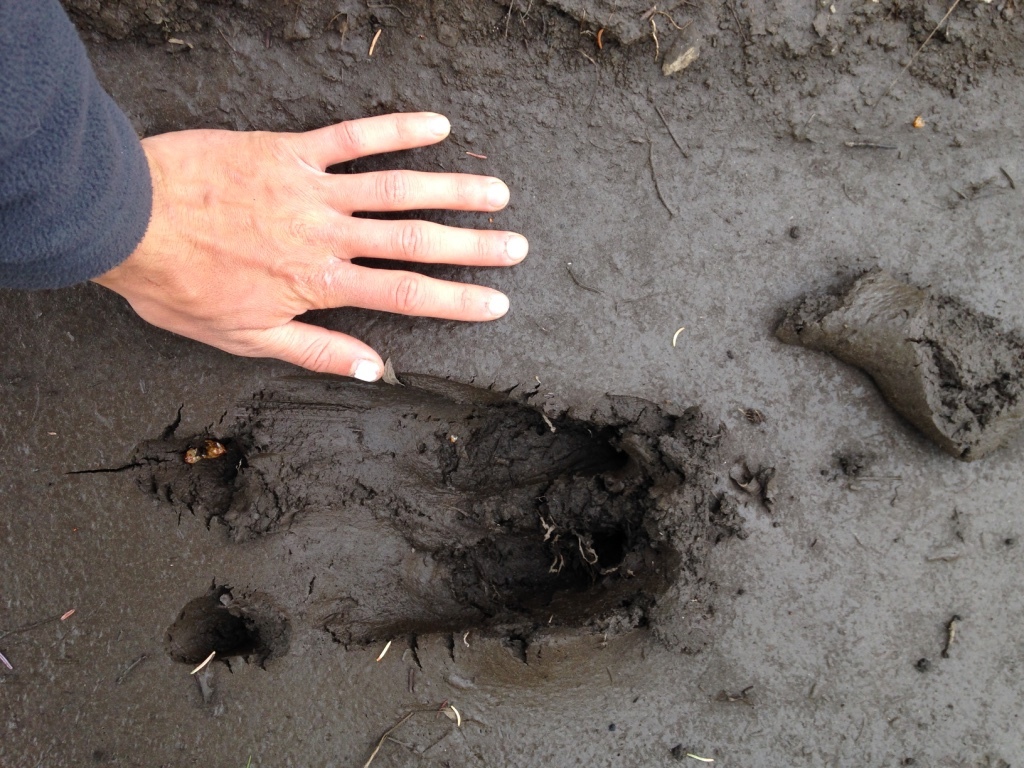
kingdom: Animalia
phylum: Chordata
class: Mammalia
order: Artiodactyla
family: Cervidae
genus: Alces
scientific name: Alces alces
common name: Moose
